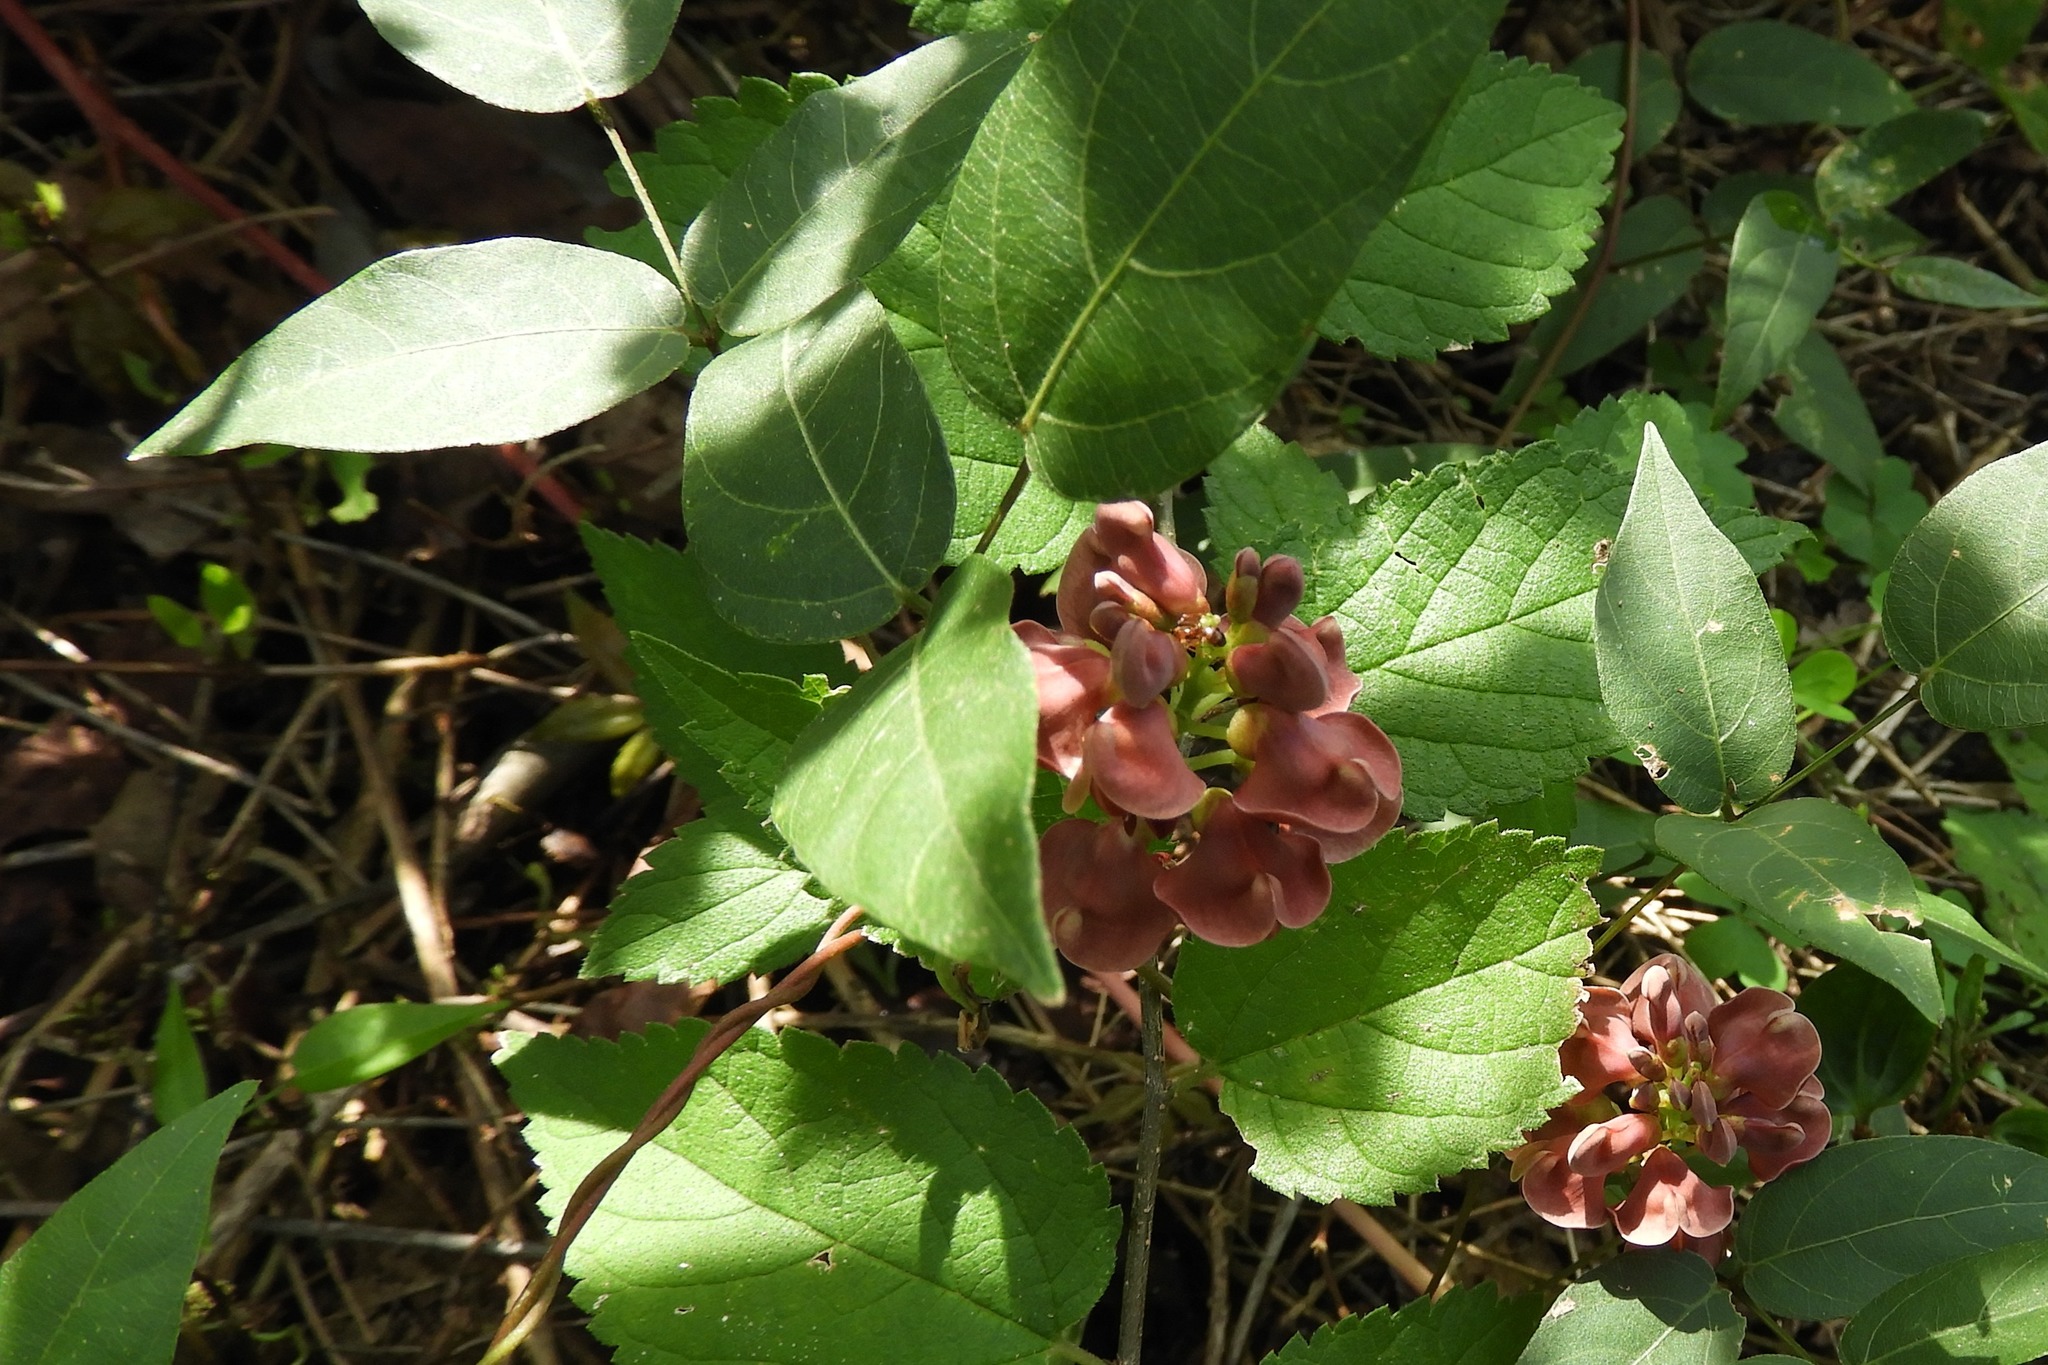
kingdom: Plantae
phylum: Tracheophyta
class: Magnoliopsida
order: Fabales
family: Fabaceae
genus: Apios
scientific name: Apios americana
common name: American potato-bean
